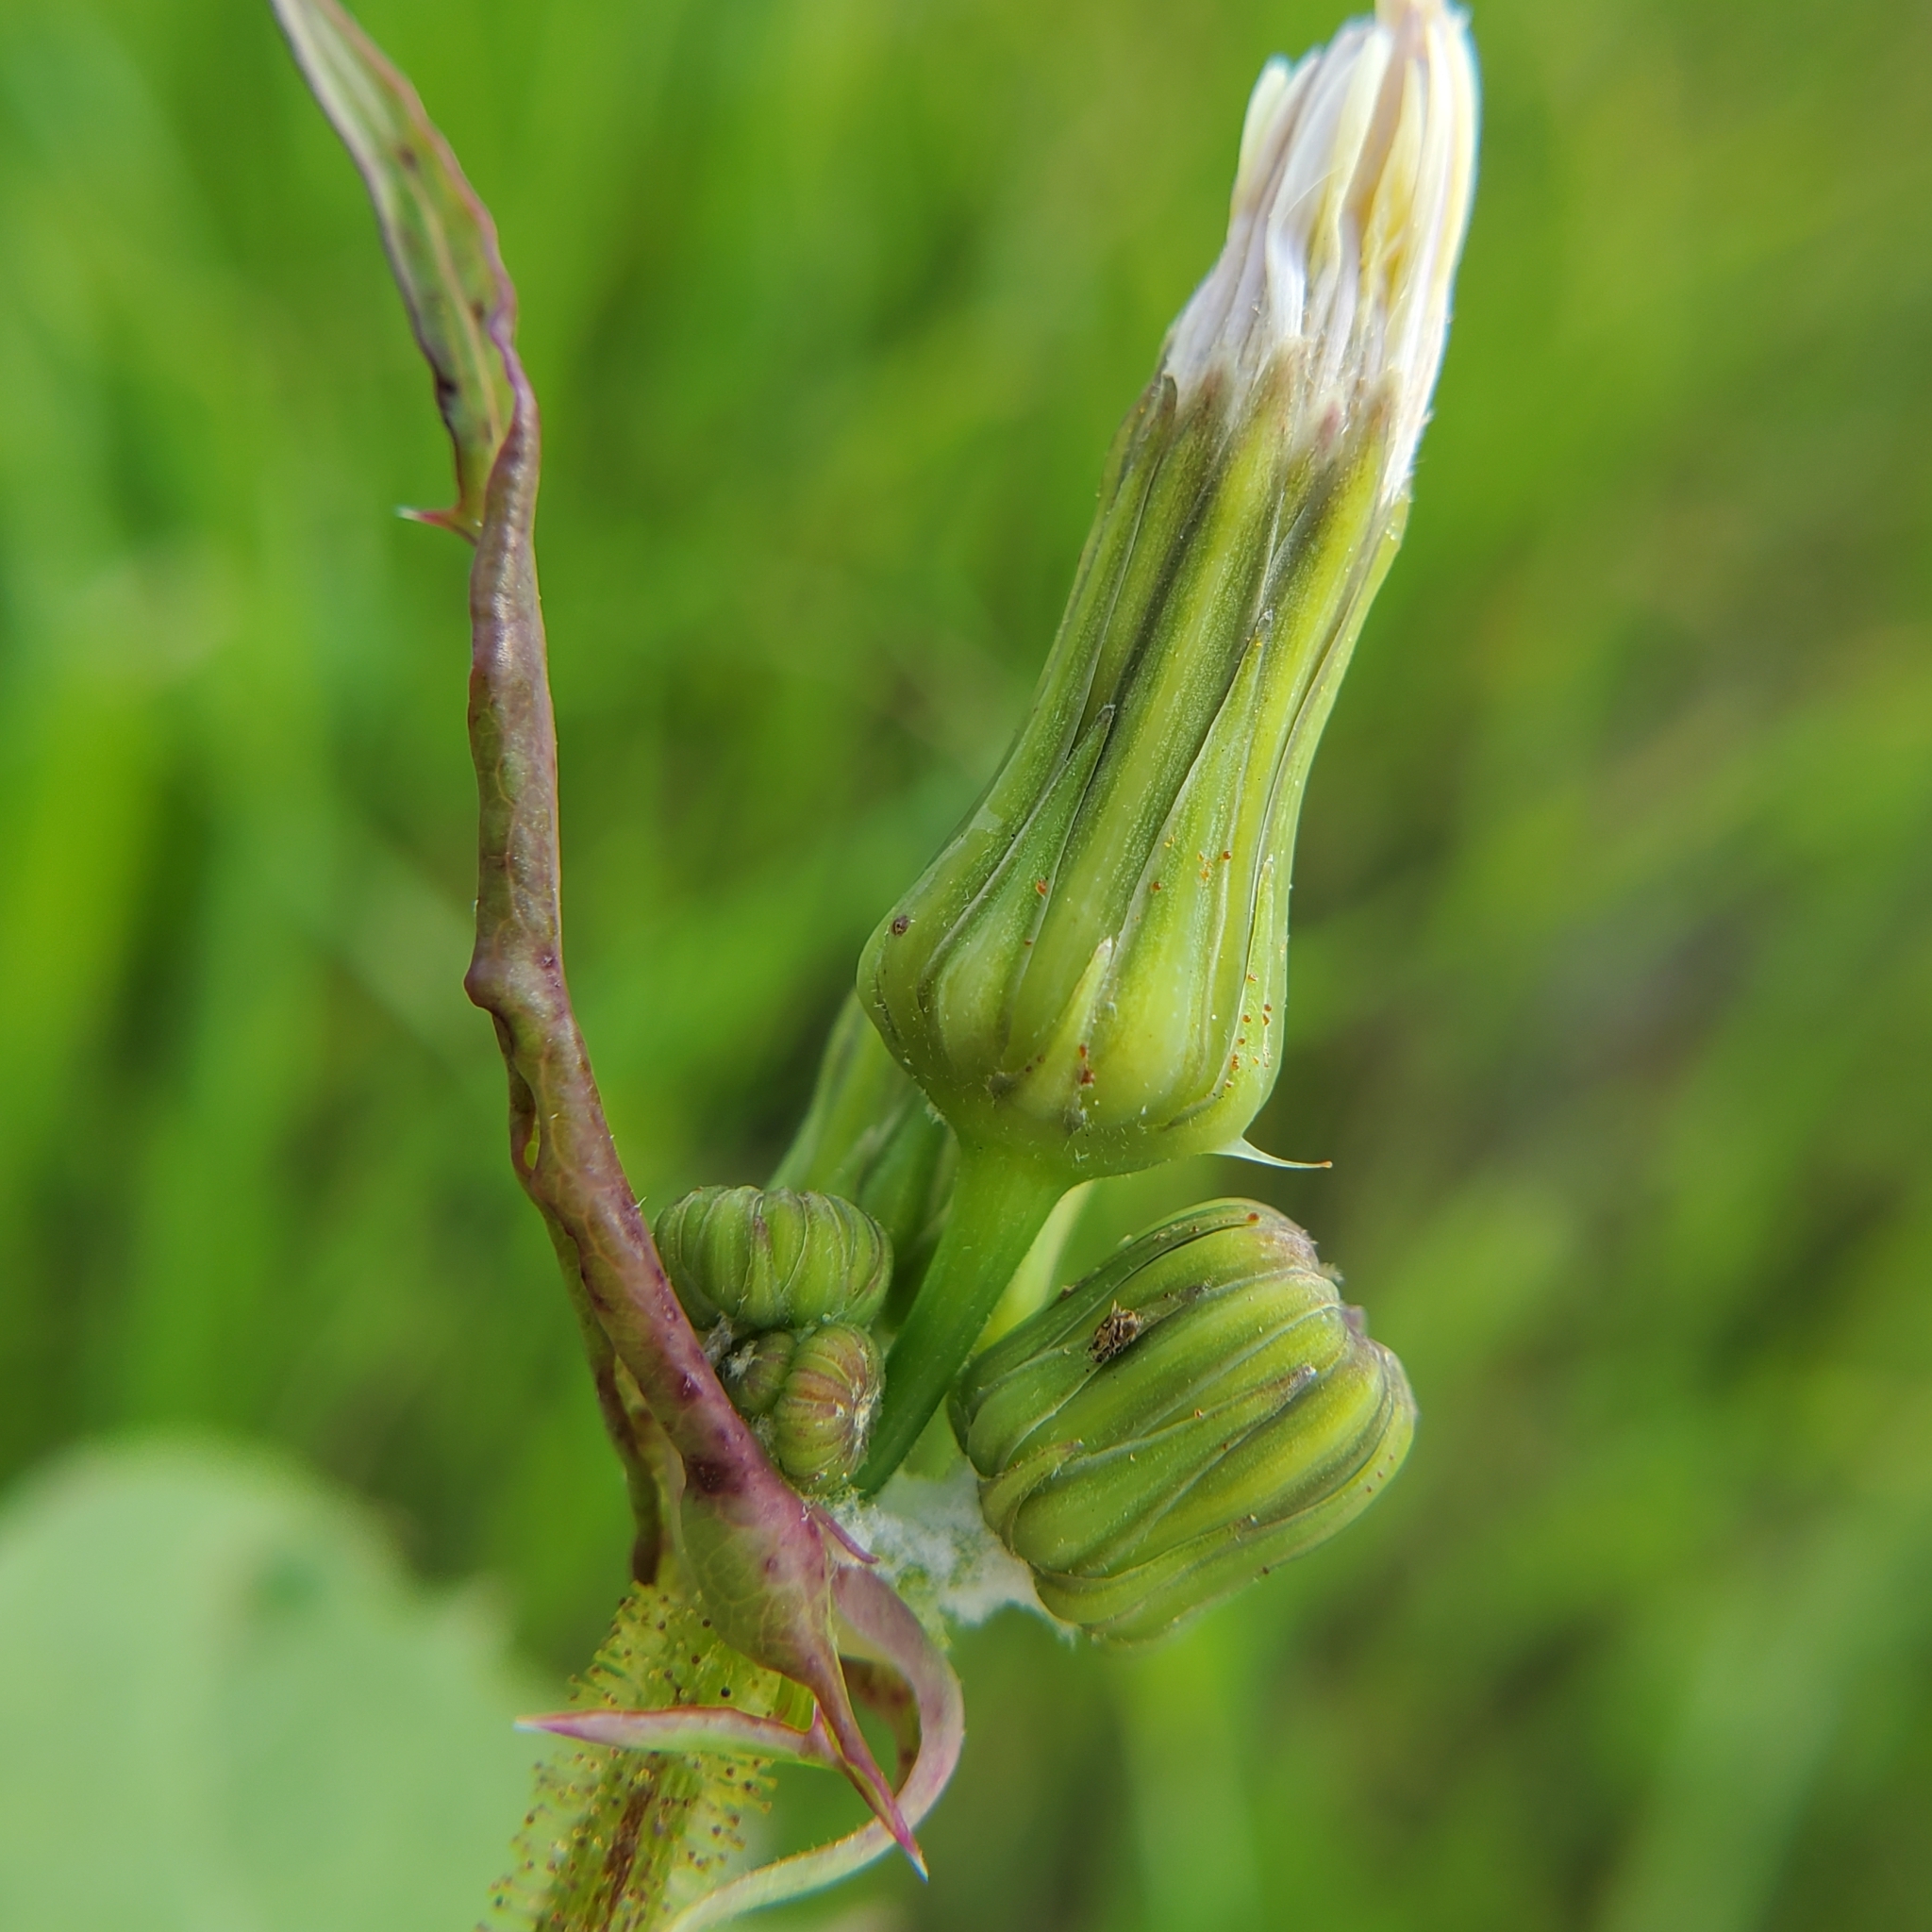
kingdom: Plantae
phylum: Tracheophyta
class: Magnoliopsida
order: Asterales
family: Asteraceae
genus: Sonchus
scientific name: Sonchus oleraceus
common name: Common sowthistle
